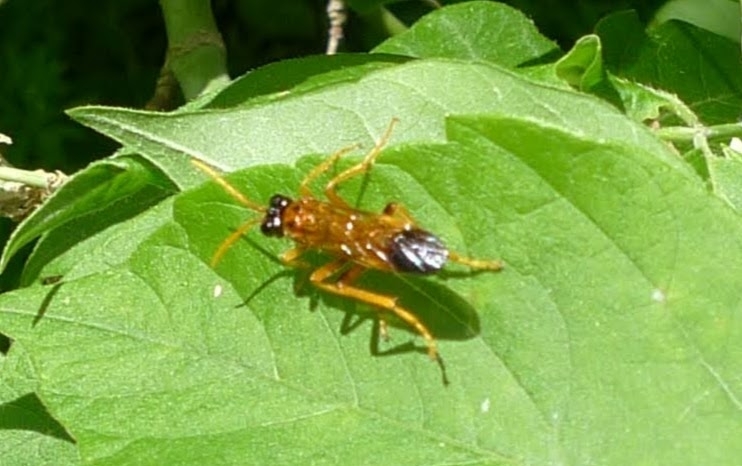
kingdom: Animalia
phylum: Arthropoda
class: Insecta
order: Hymenoptera
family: Tenthredinidae
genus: Tenthredo
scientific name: Tenthredo campestris
